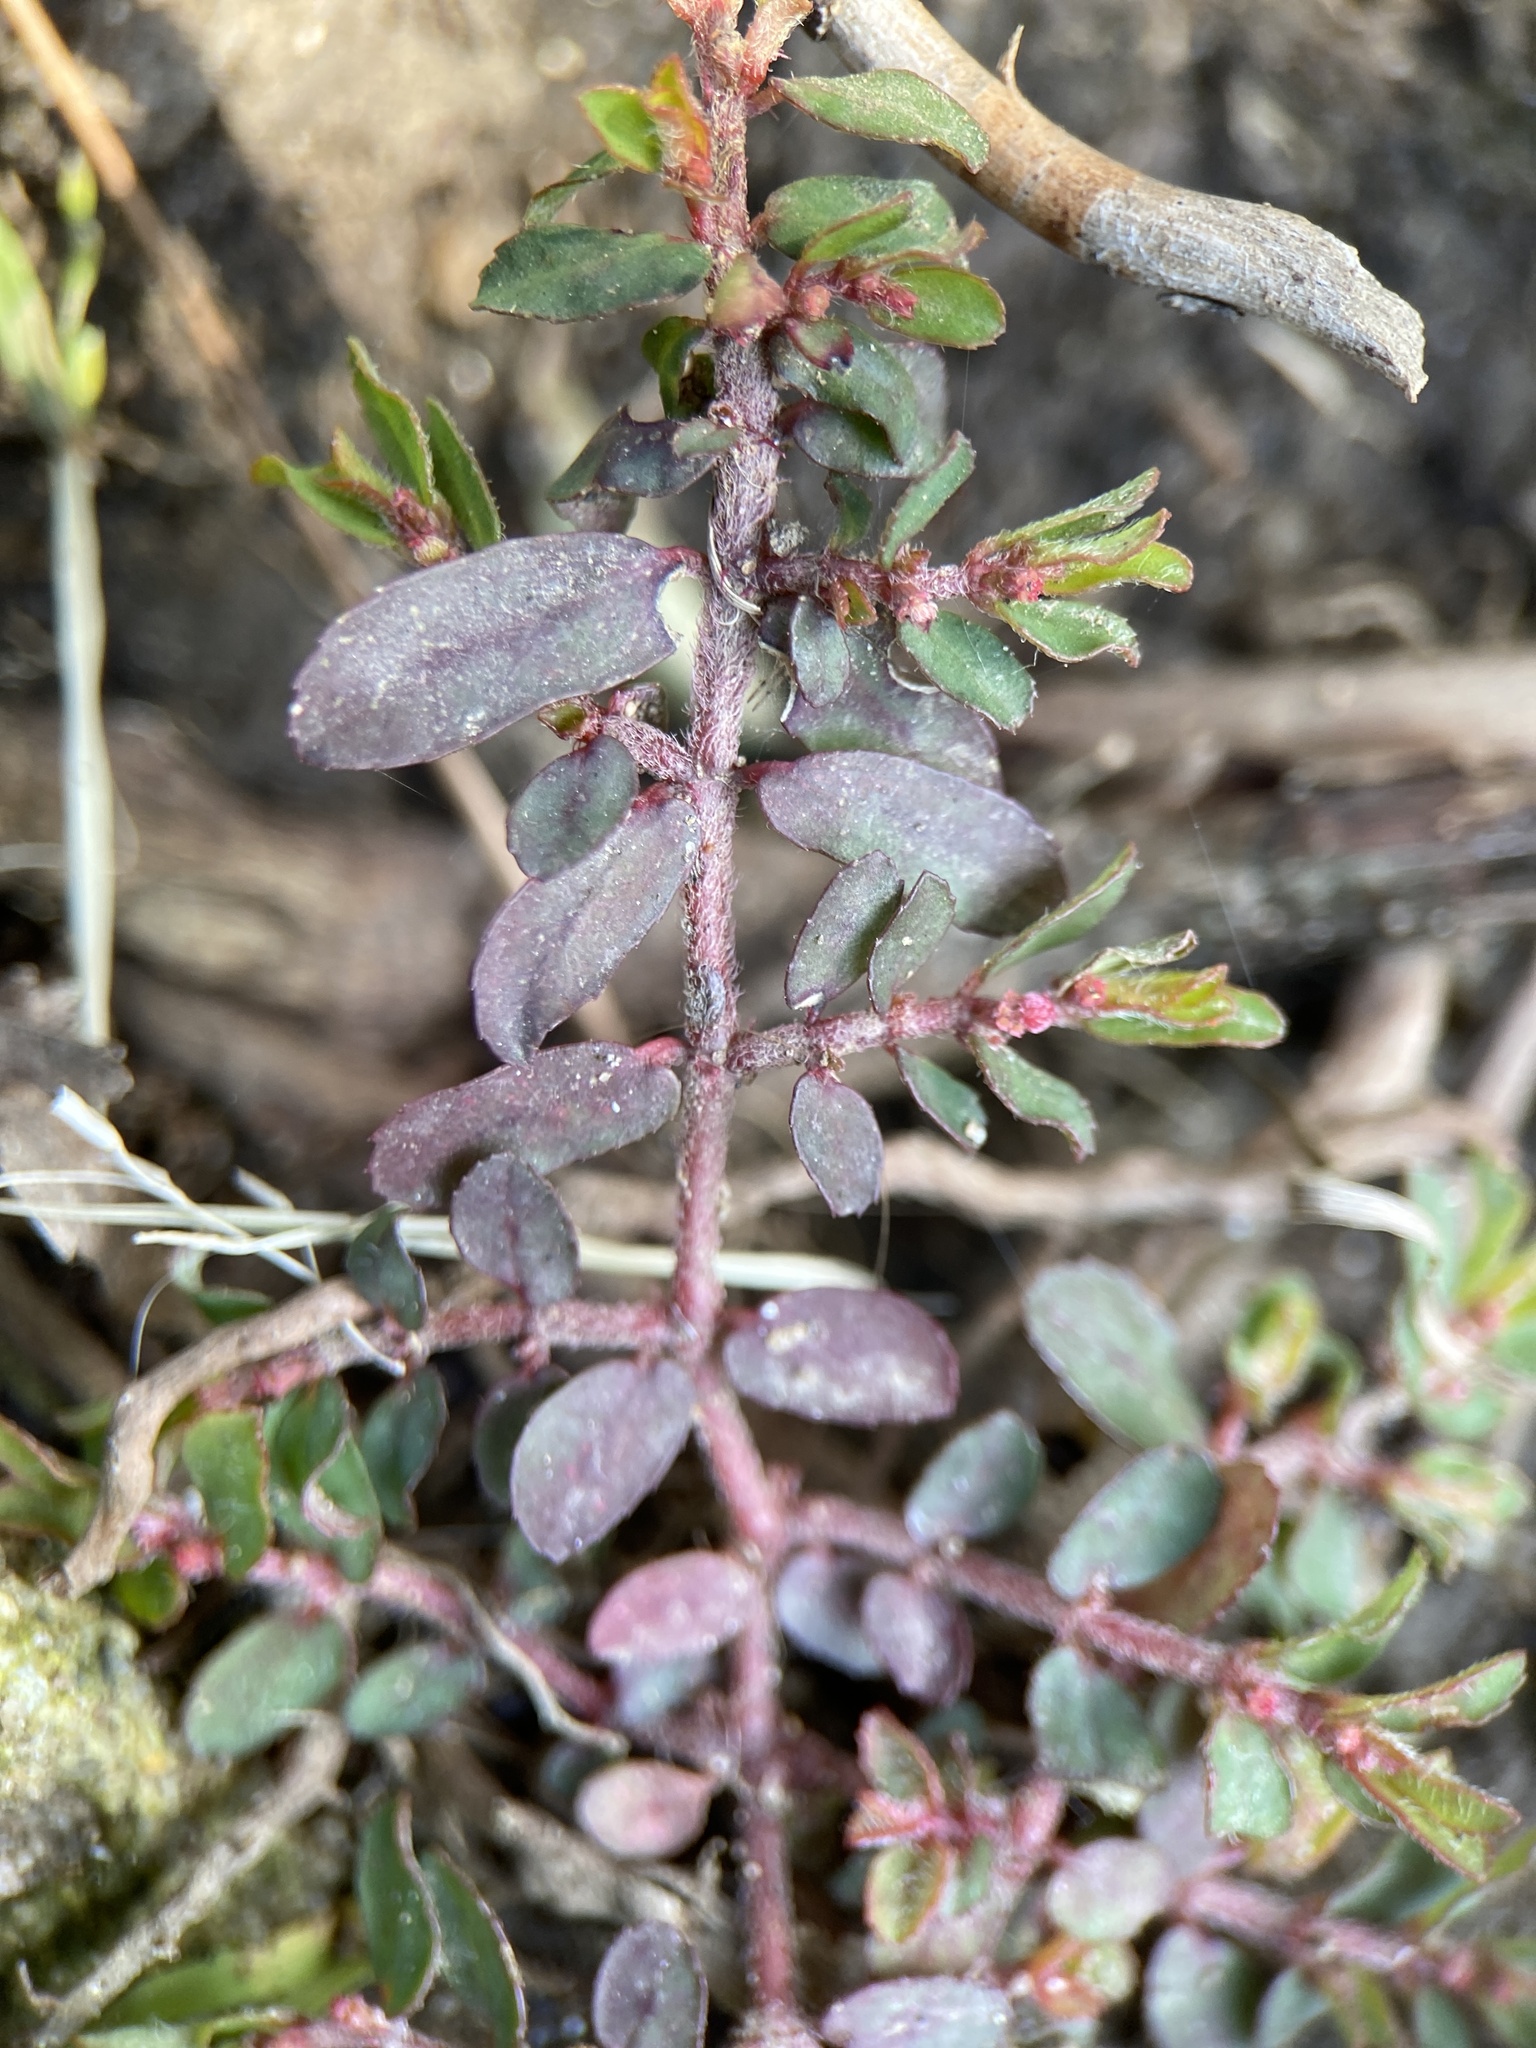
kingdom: Plantae
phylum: Tracheophyta
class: Magnoliopsida
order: Malpighiales
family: Euphorbiaceae
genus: Euphorbia
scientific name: Euphorbia maculata
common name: Spotted spurge
